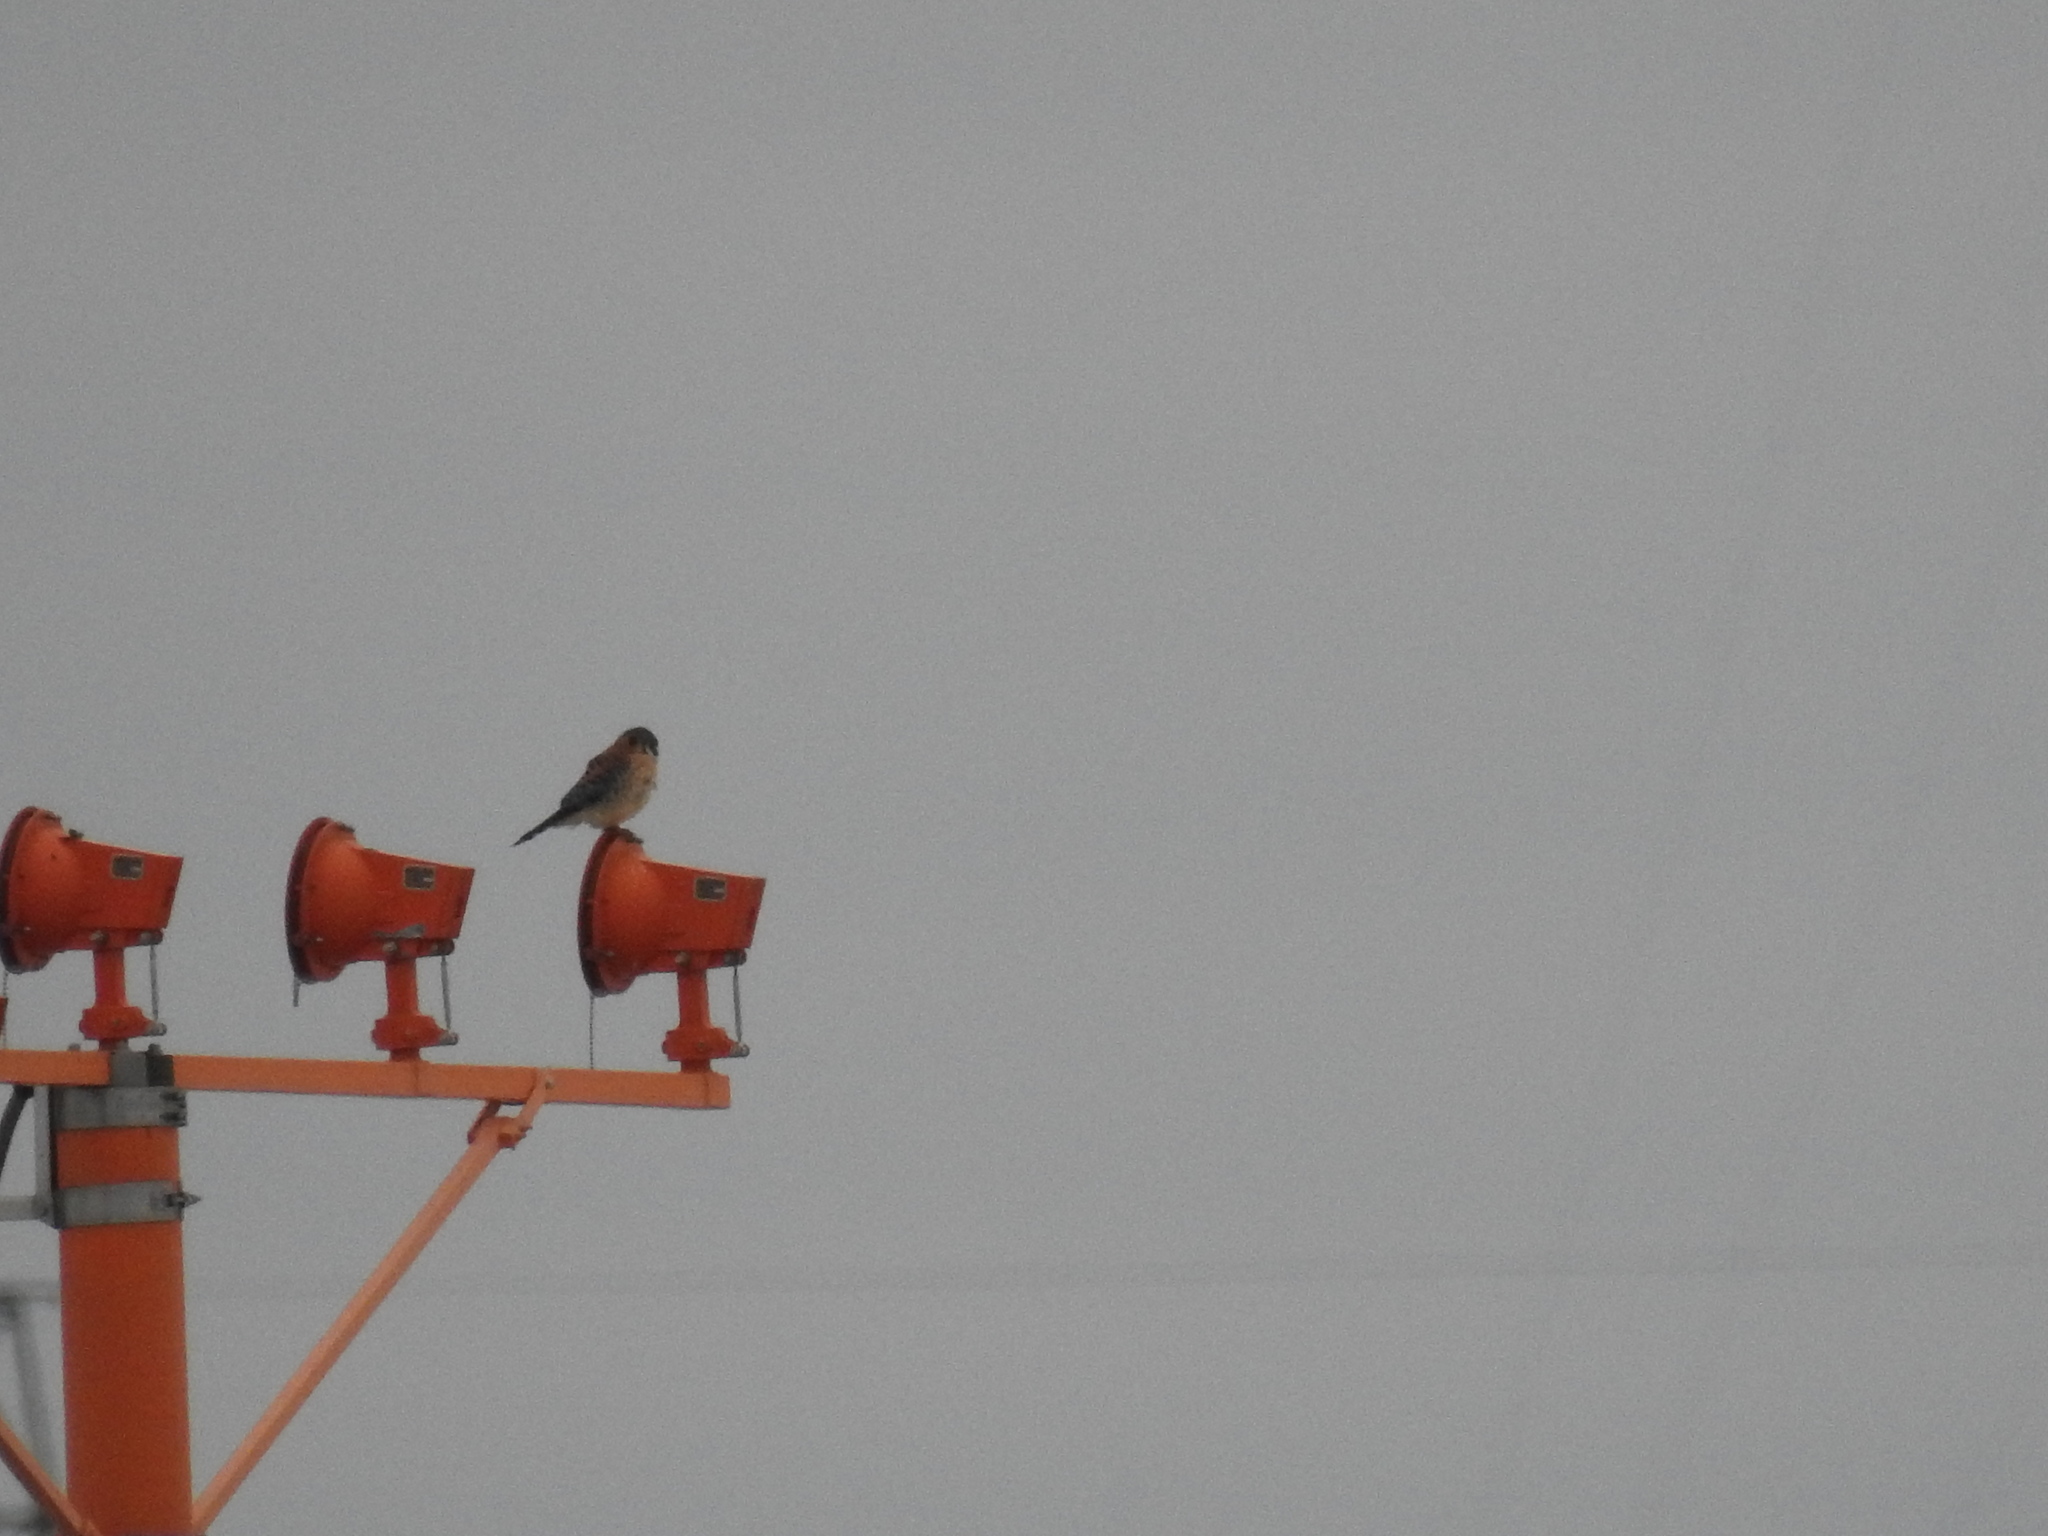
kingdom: Animalia
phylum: Chordata
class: Aves
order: Falconiformes
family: Falconidae
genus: Falco
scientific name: Falco sparverius
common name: American kestrel
